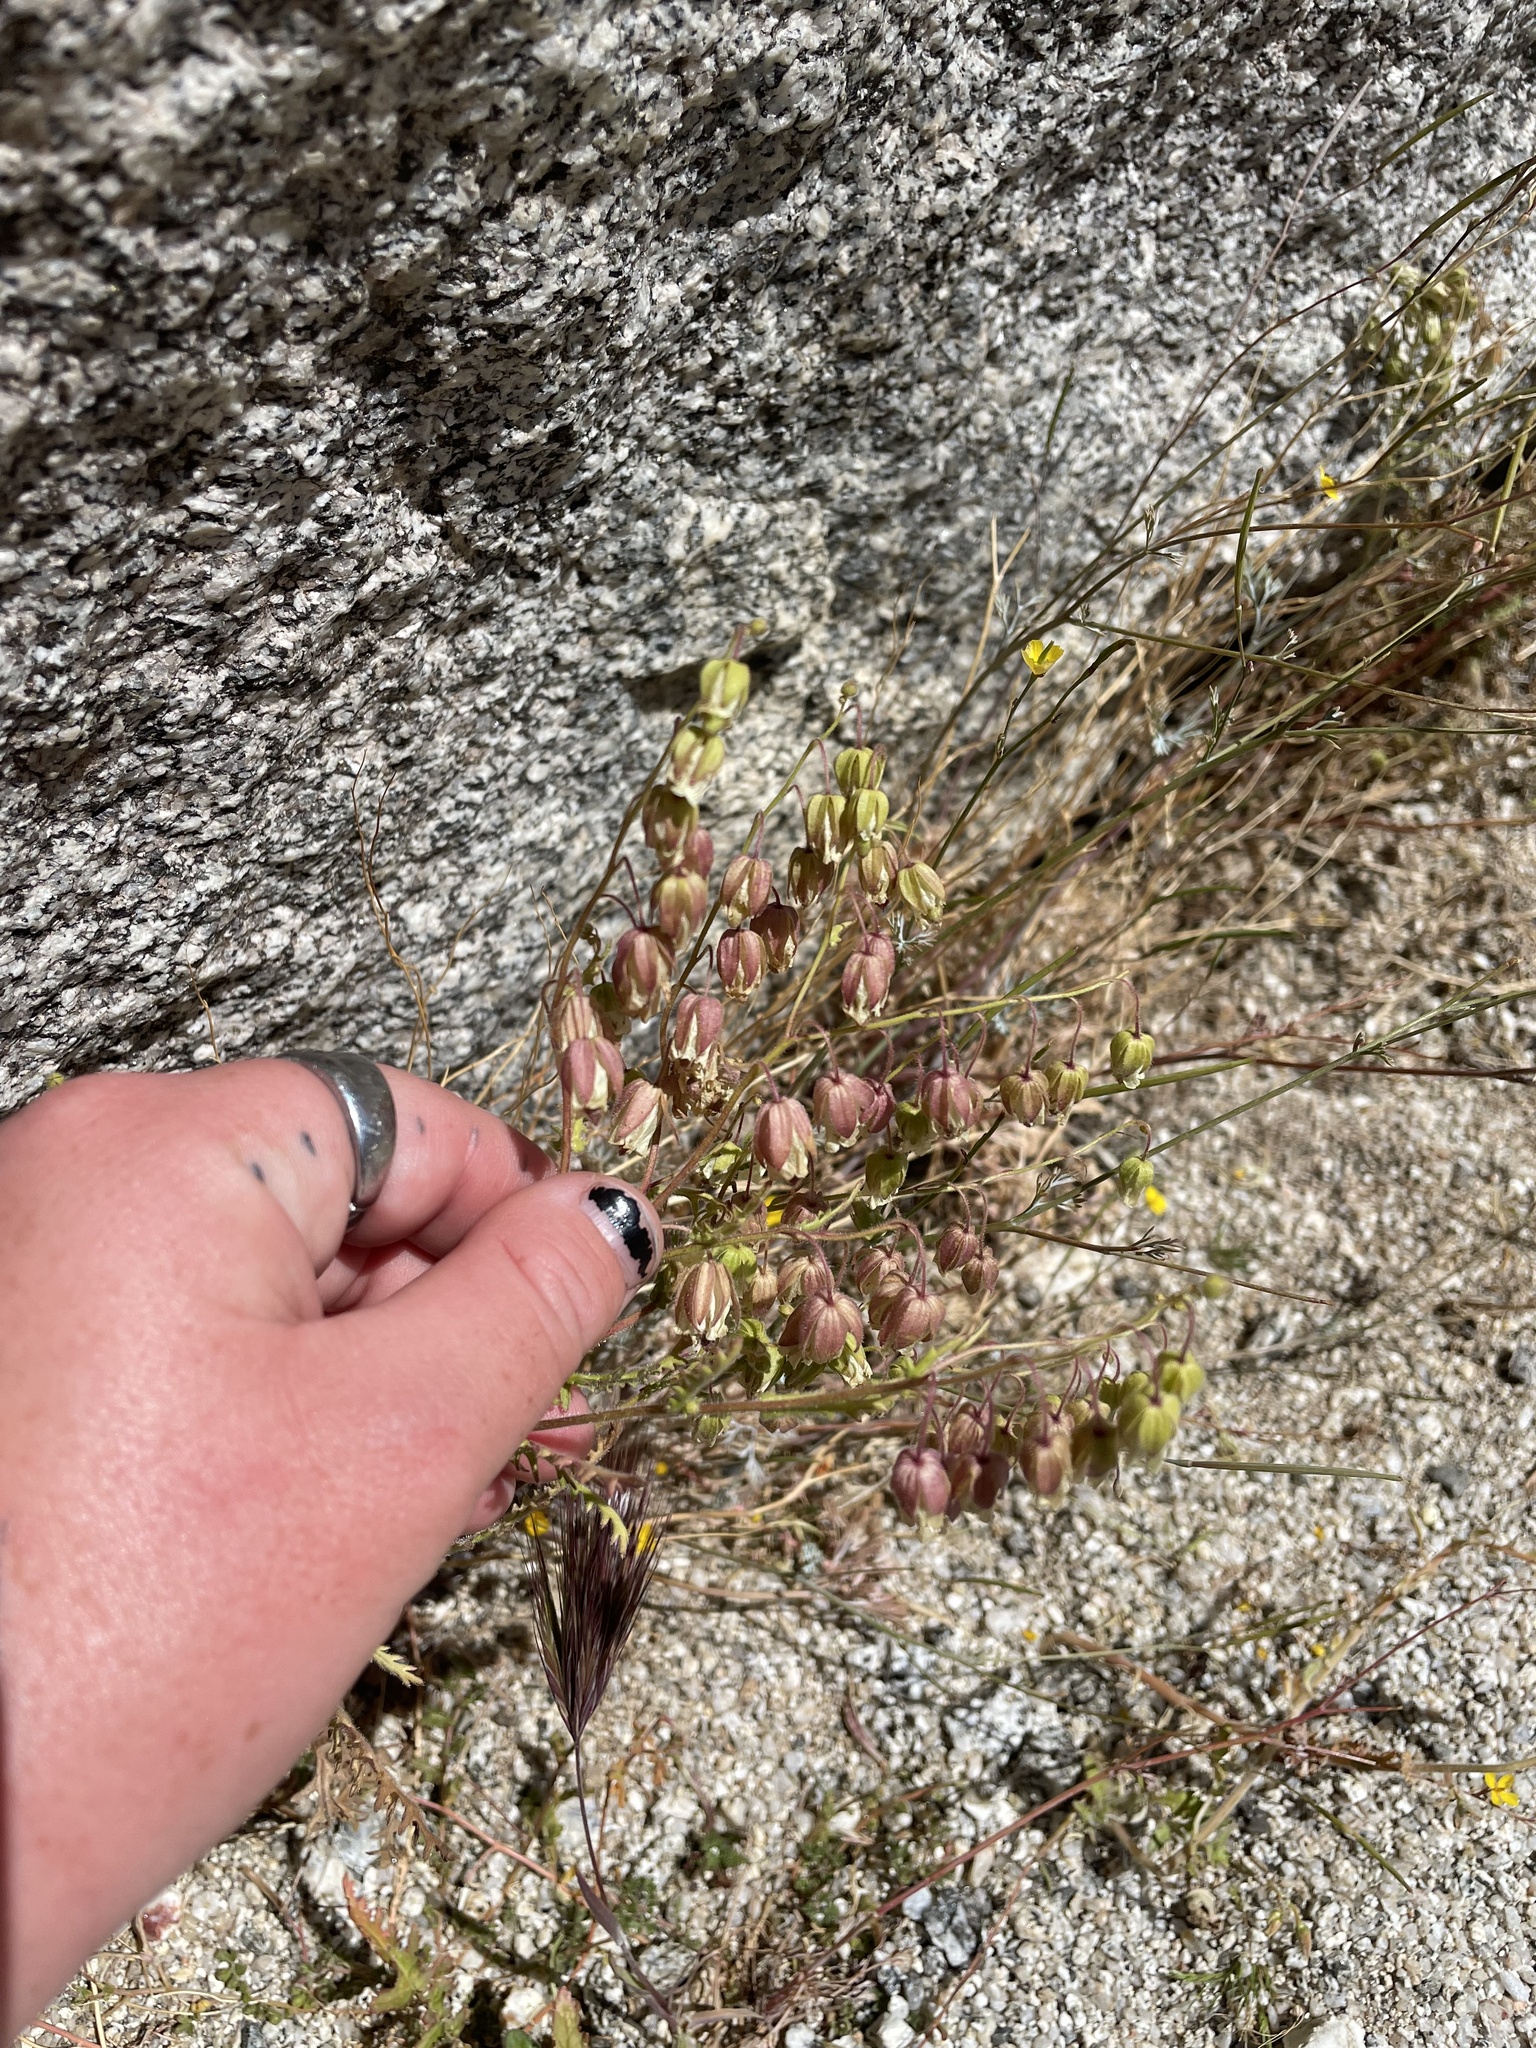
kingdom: Plantae
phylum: Tracheophyta
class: Magnoliopsida
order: Boraginales
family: Hydrophyllaceae
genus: Emmenanthe
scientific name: Emmenanthe penduliflora
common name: Whispering-bells
